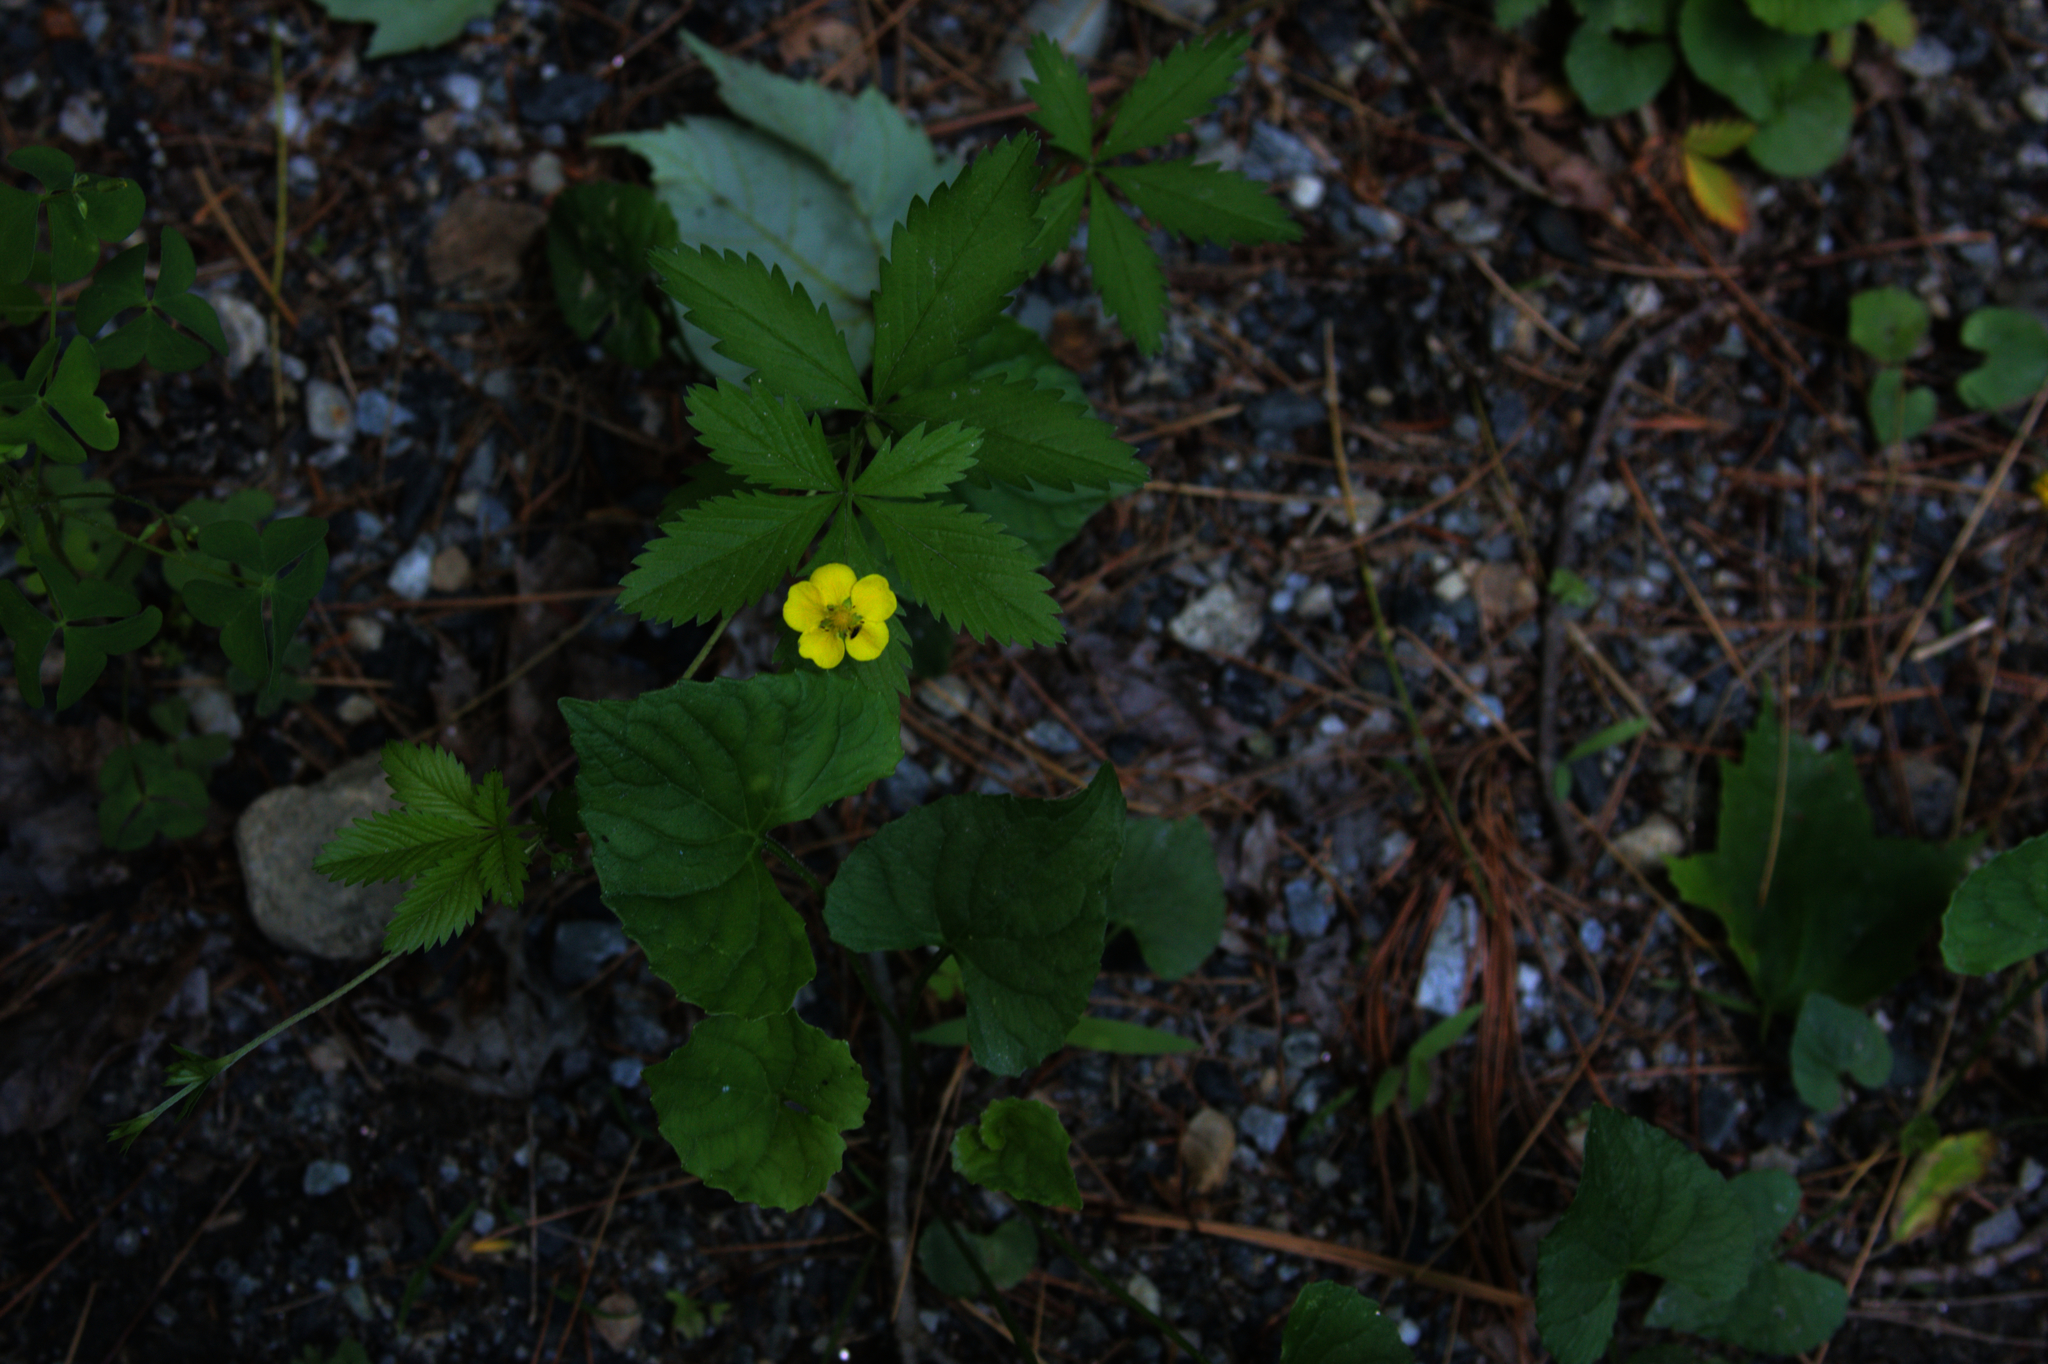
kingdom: Plantae
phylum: Tracheophyta
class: Magnoliopsida
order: Rosales
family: Rosaceae
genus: Potentilla
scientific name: Potentilla simplex
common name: Old field cinquefoil
